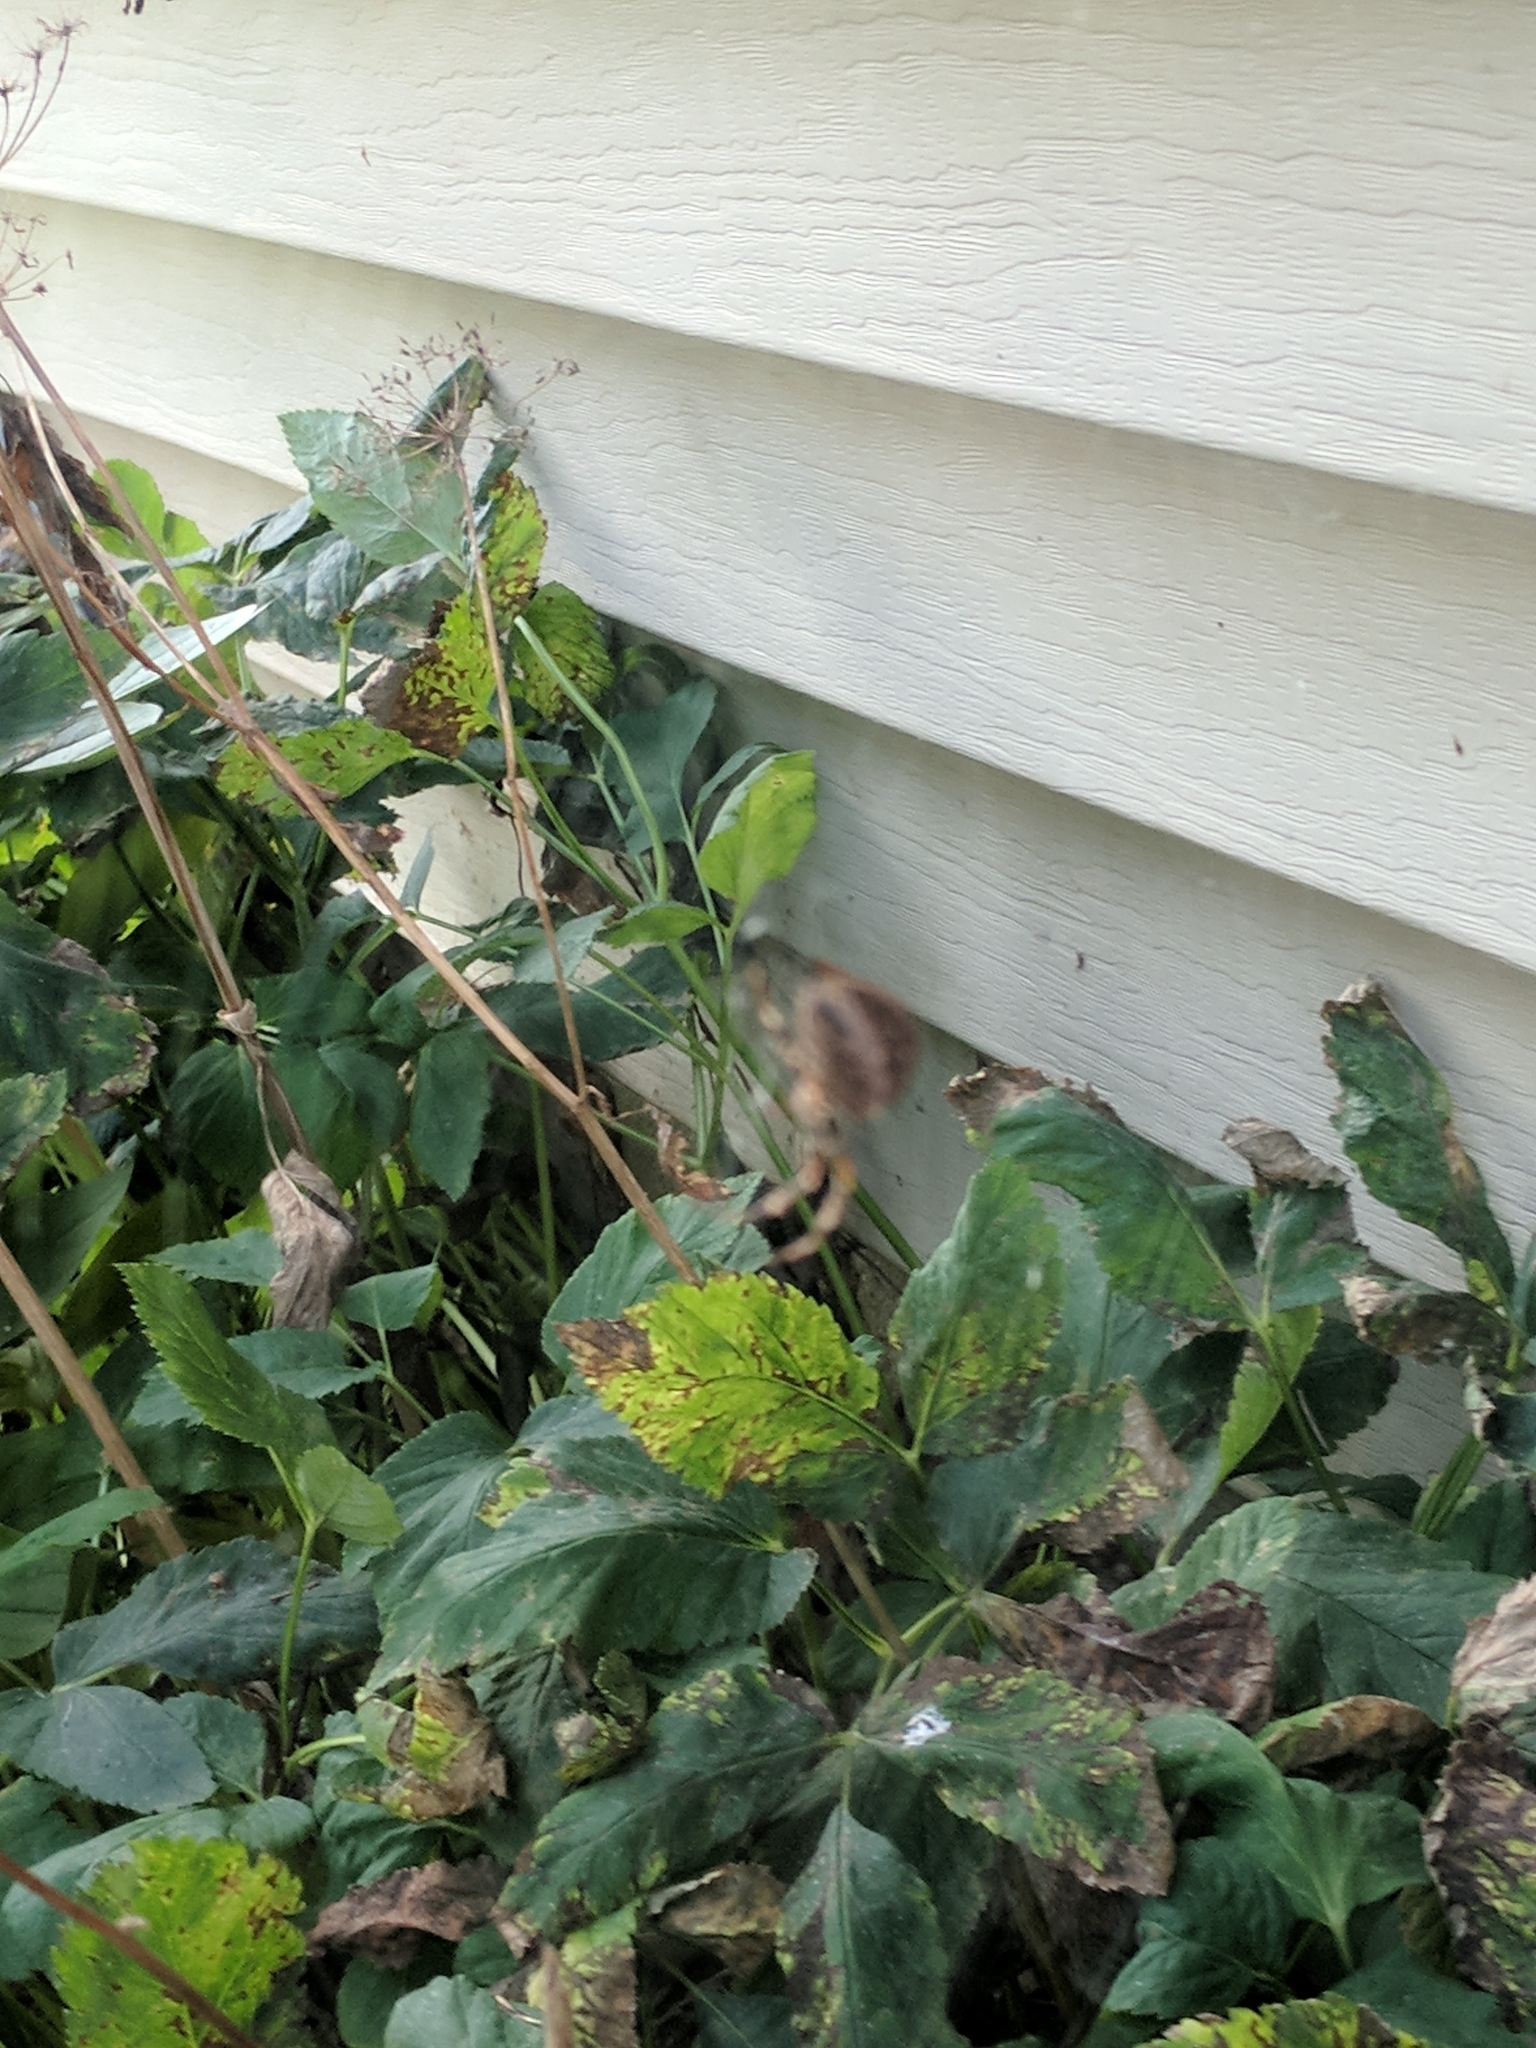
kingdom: Animalia
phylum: Arthropoda
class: Arachnida
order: Araneae
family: Araneidae
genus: Araneus
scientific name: Araneus diadematus
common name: Cross orbweaver
